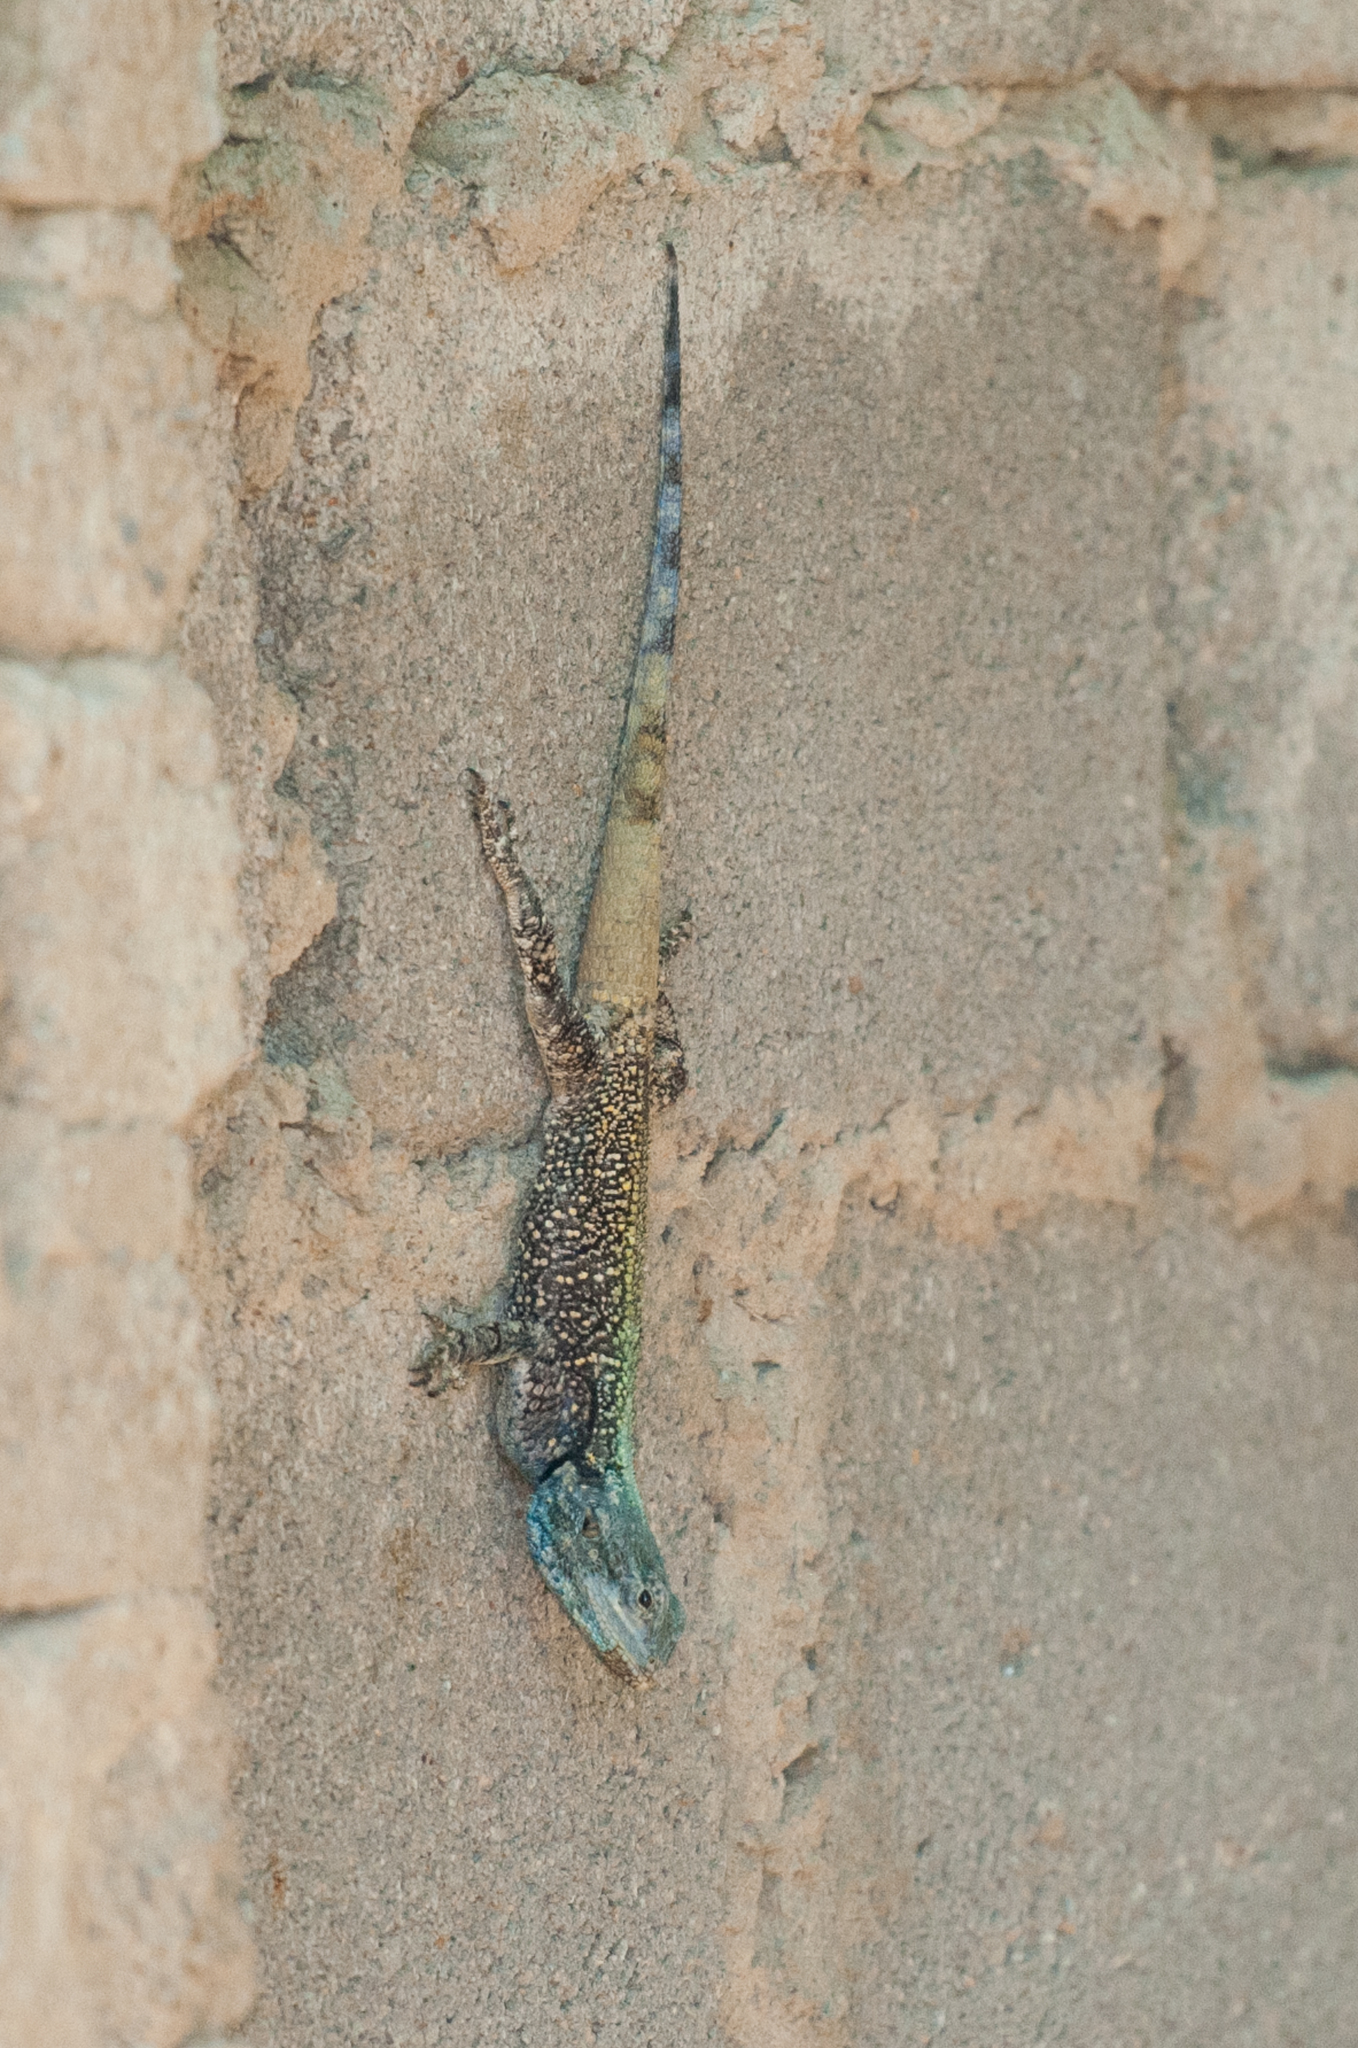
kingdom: Animalia
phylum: Chordata
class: Squamata
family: Agamidae
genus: Acanthocercus
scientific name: Acanthocercus atricollis
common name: Southern tree agama
